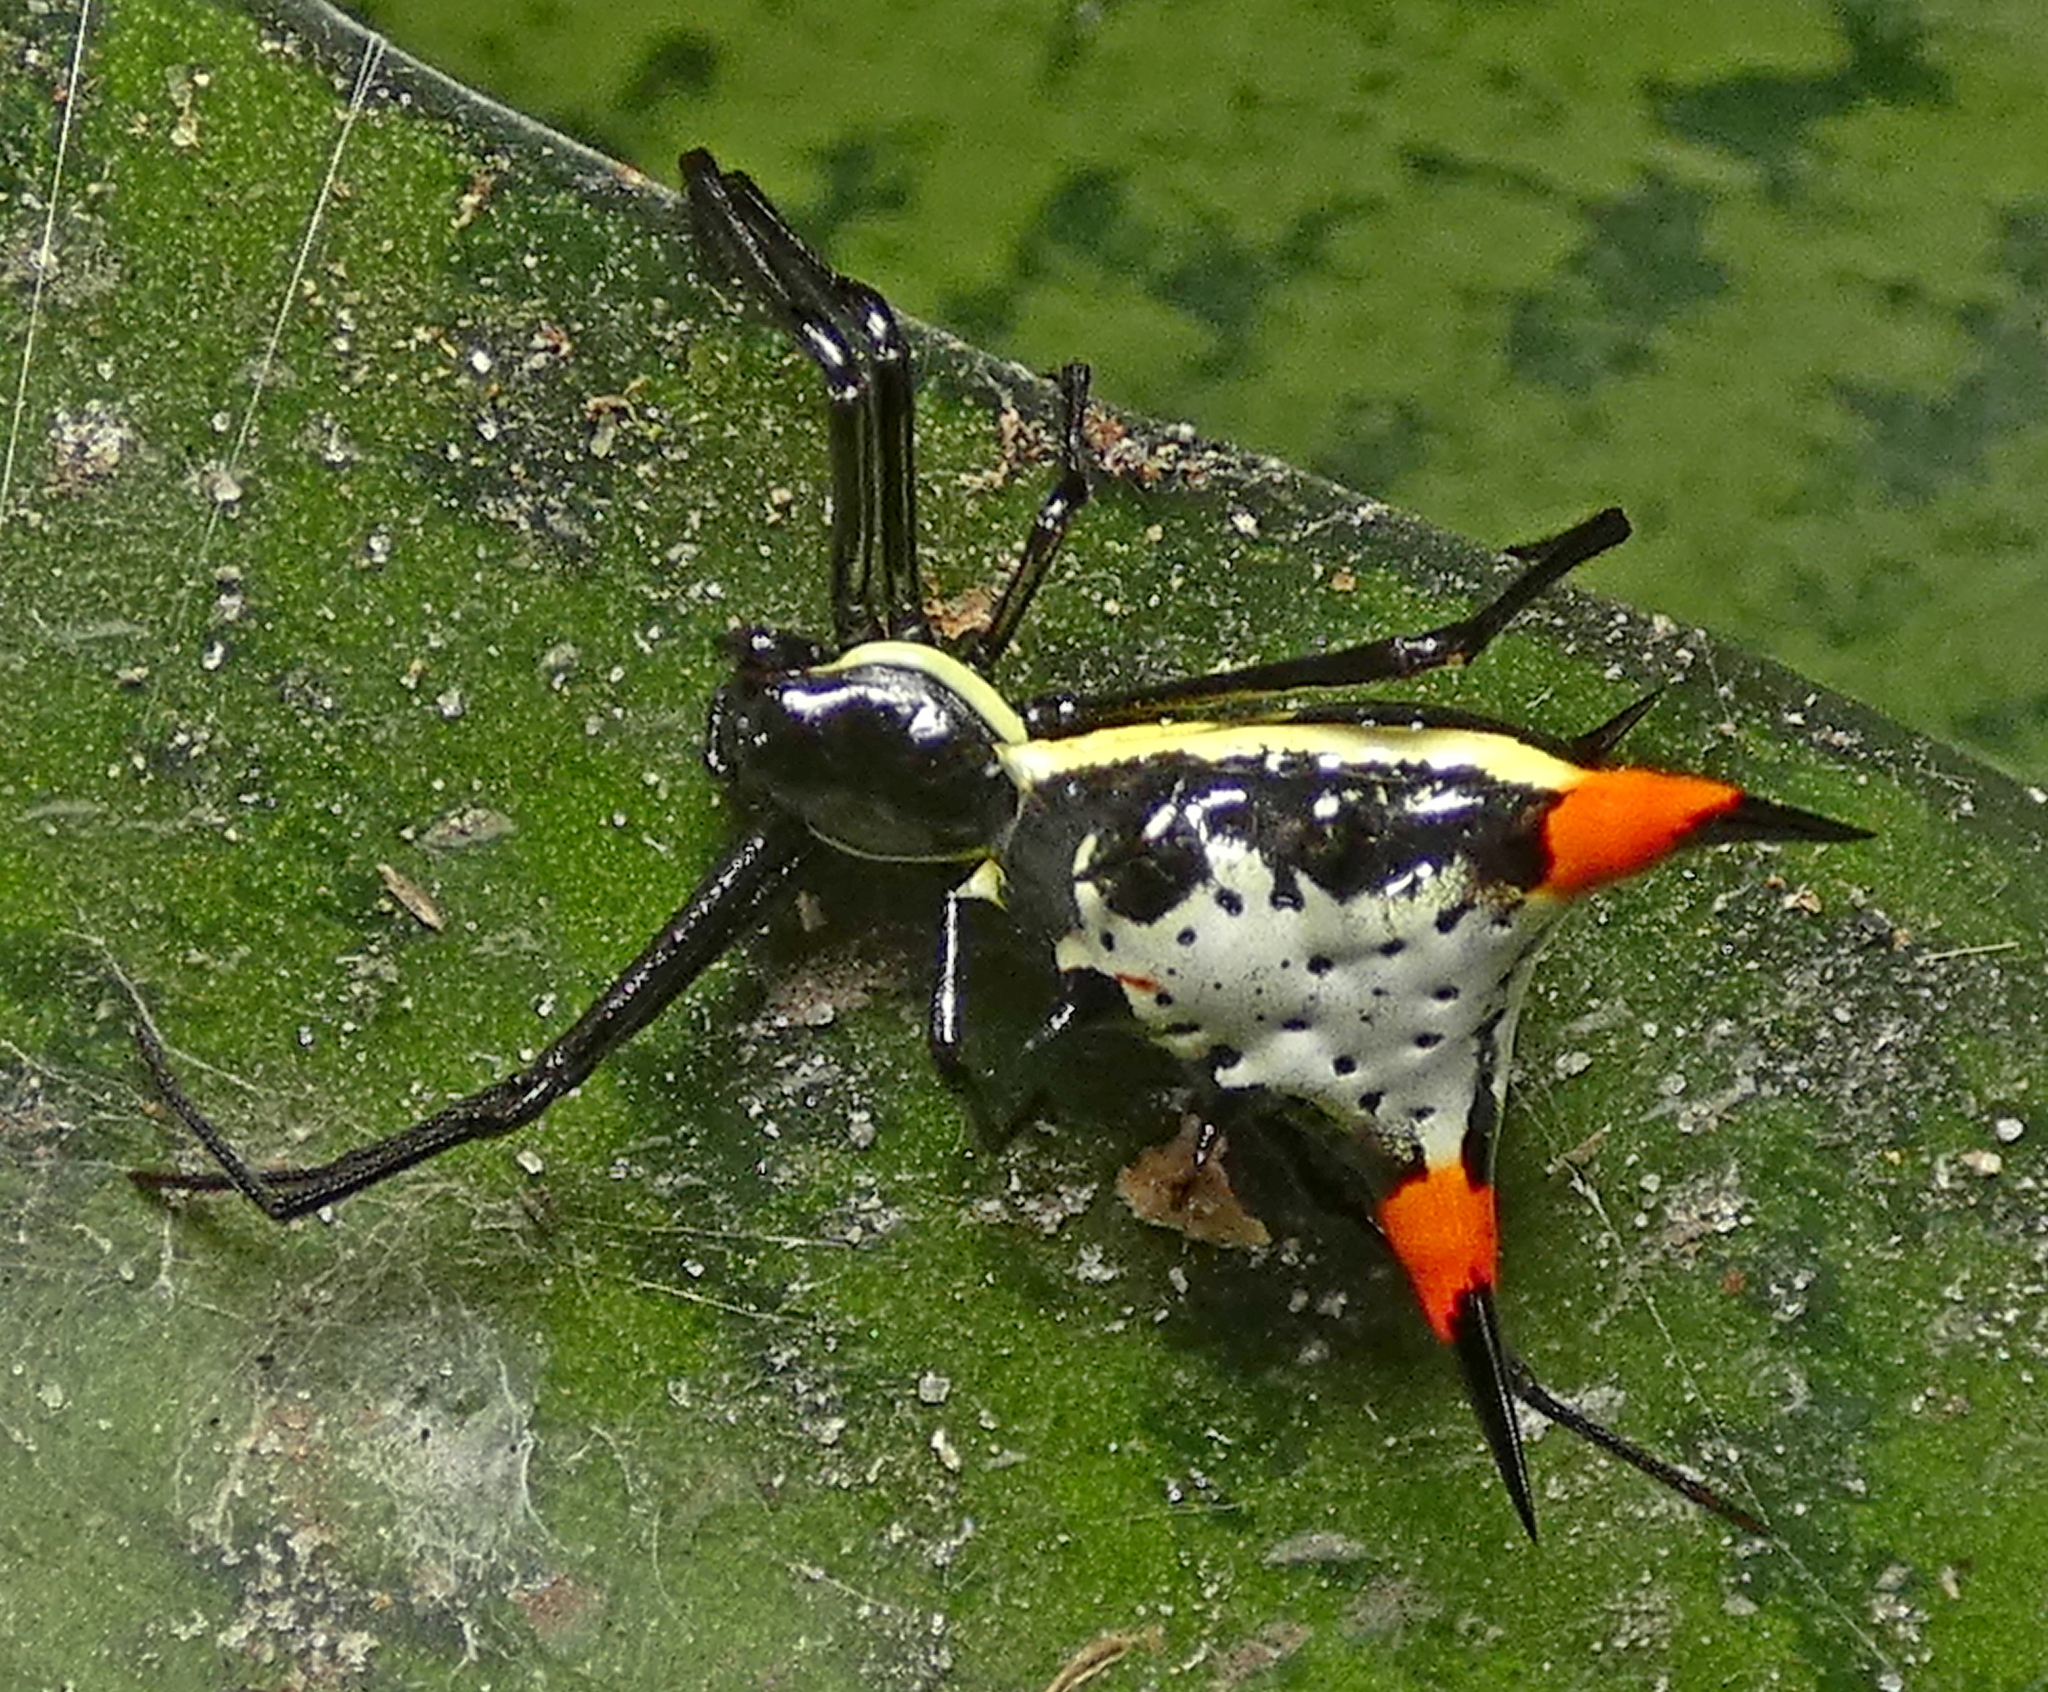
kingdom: Animalia
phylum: Arthropoda
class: Arachnida
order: Araneae
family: Araneidae
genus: Micrathena
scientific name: Micrathena schreibersi
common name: Orb weavers
